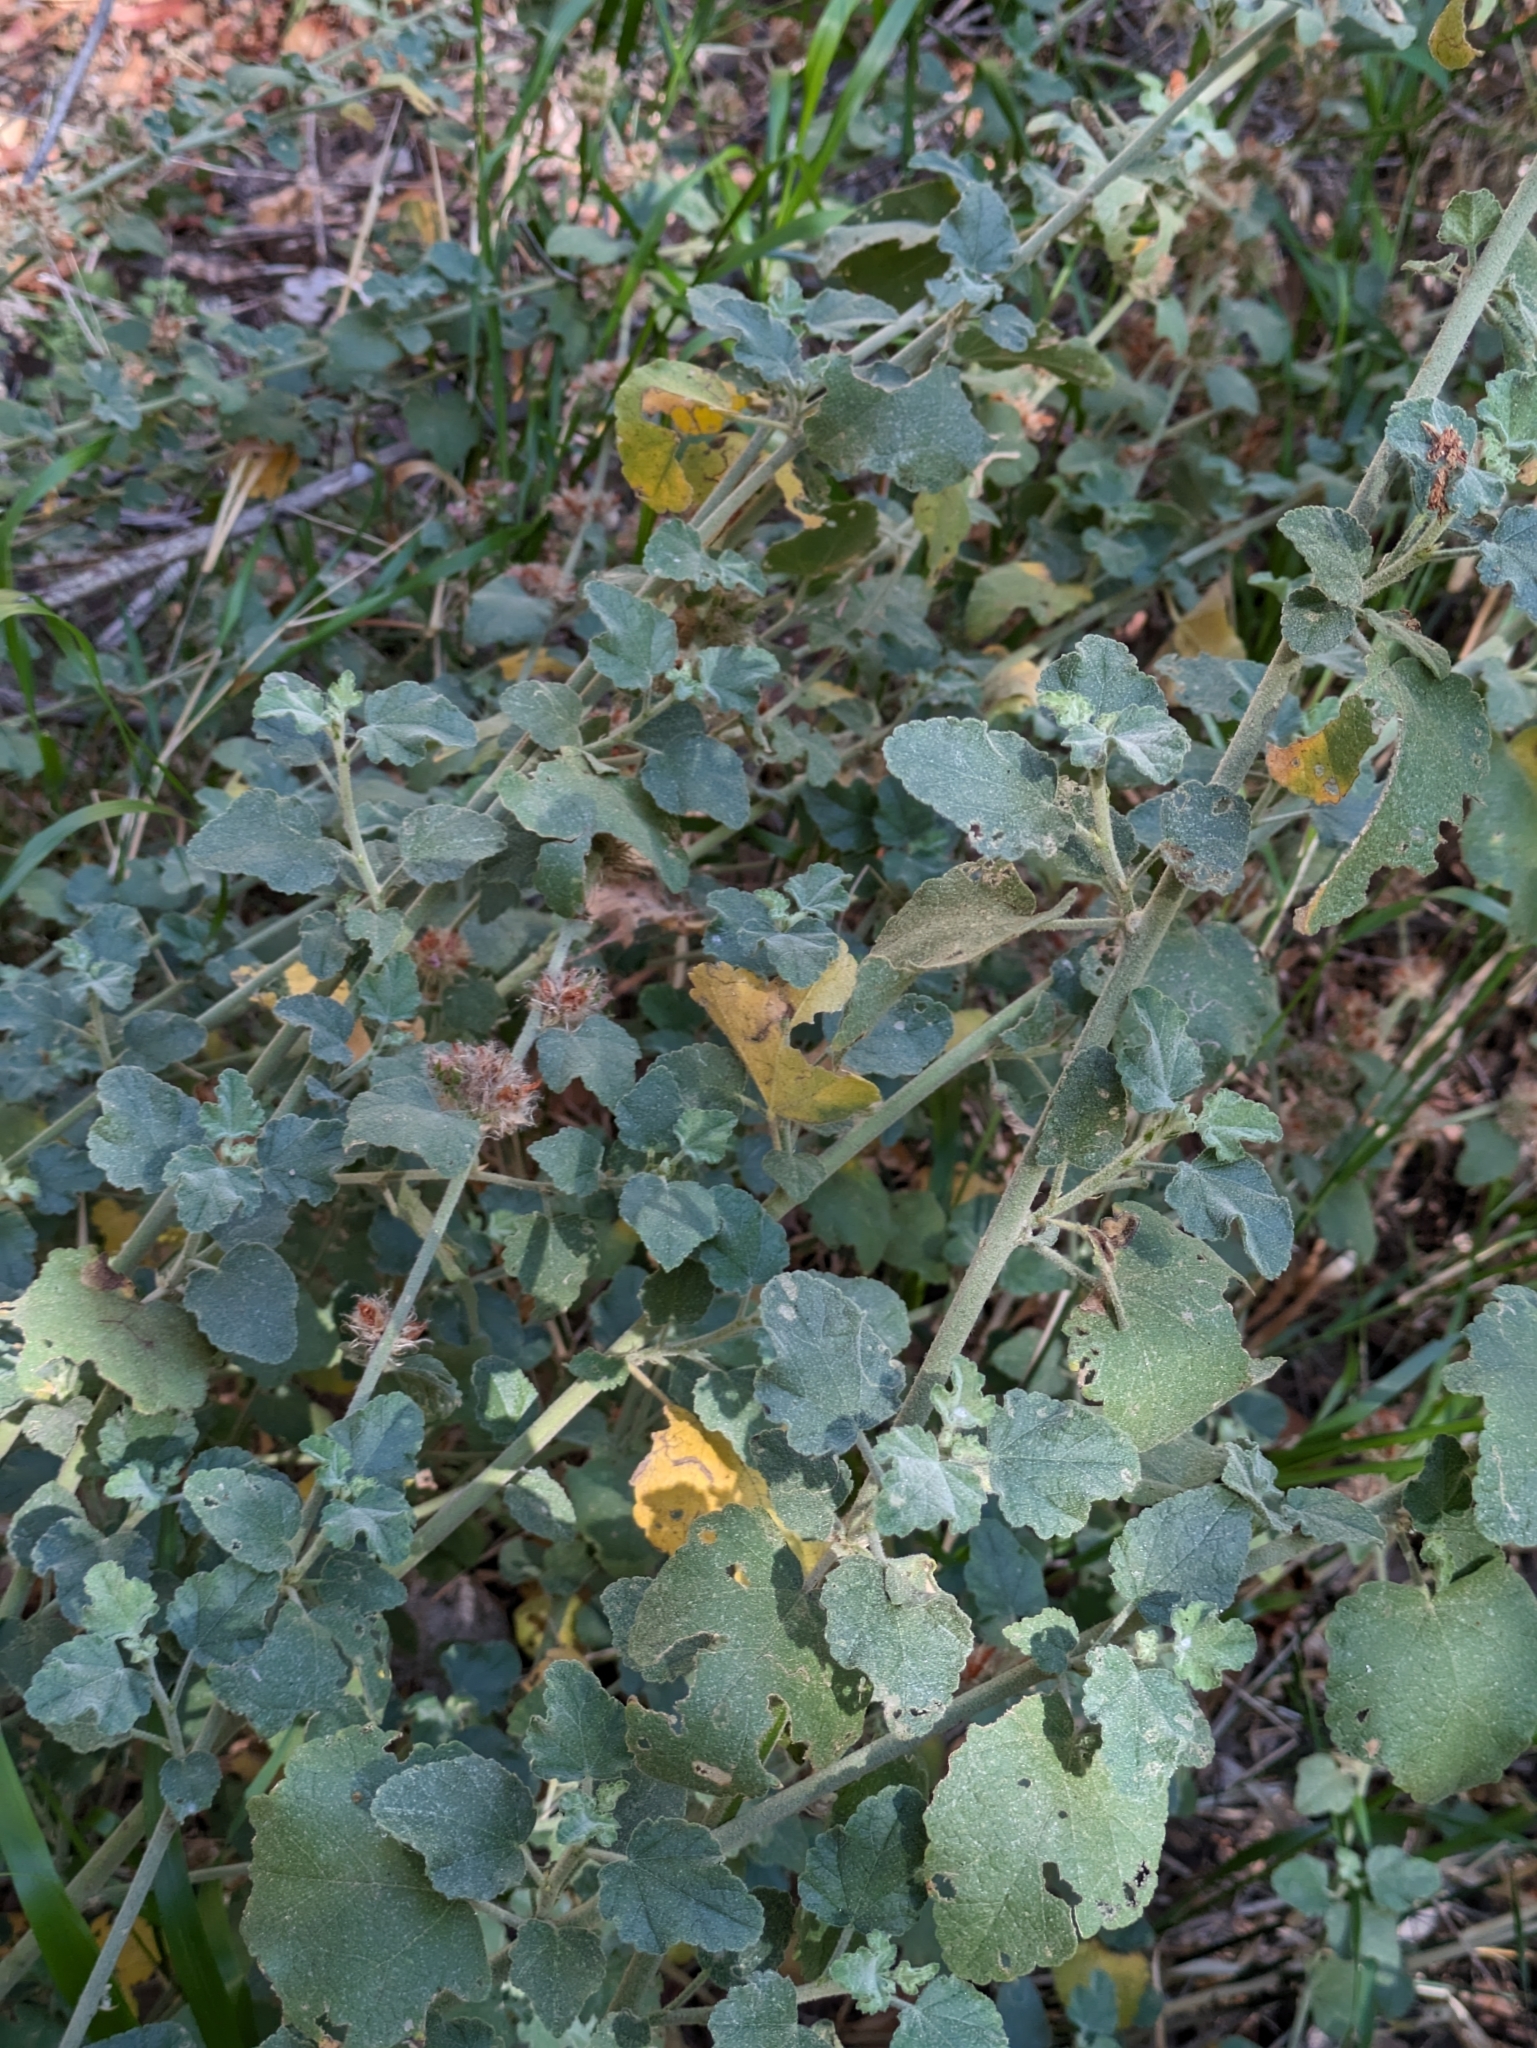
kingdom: Plantae
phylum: Tracheophyta
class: Magnoliopsida
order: Malvales
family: Malvaceae
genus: Malacothamnus
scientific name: Malacothamnus densiflorus
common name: Yellow-stem bush-mallow
